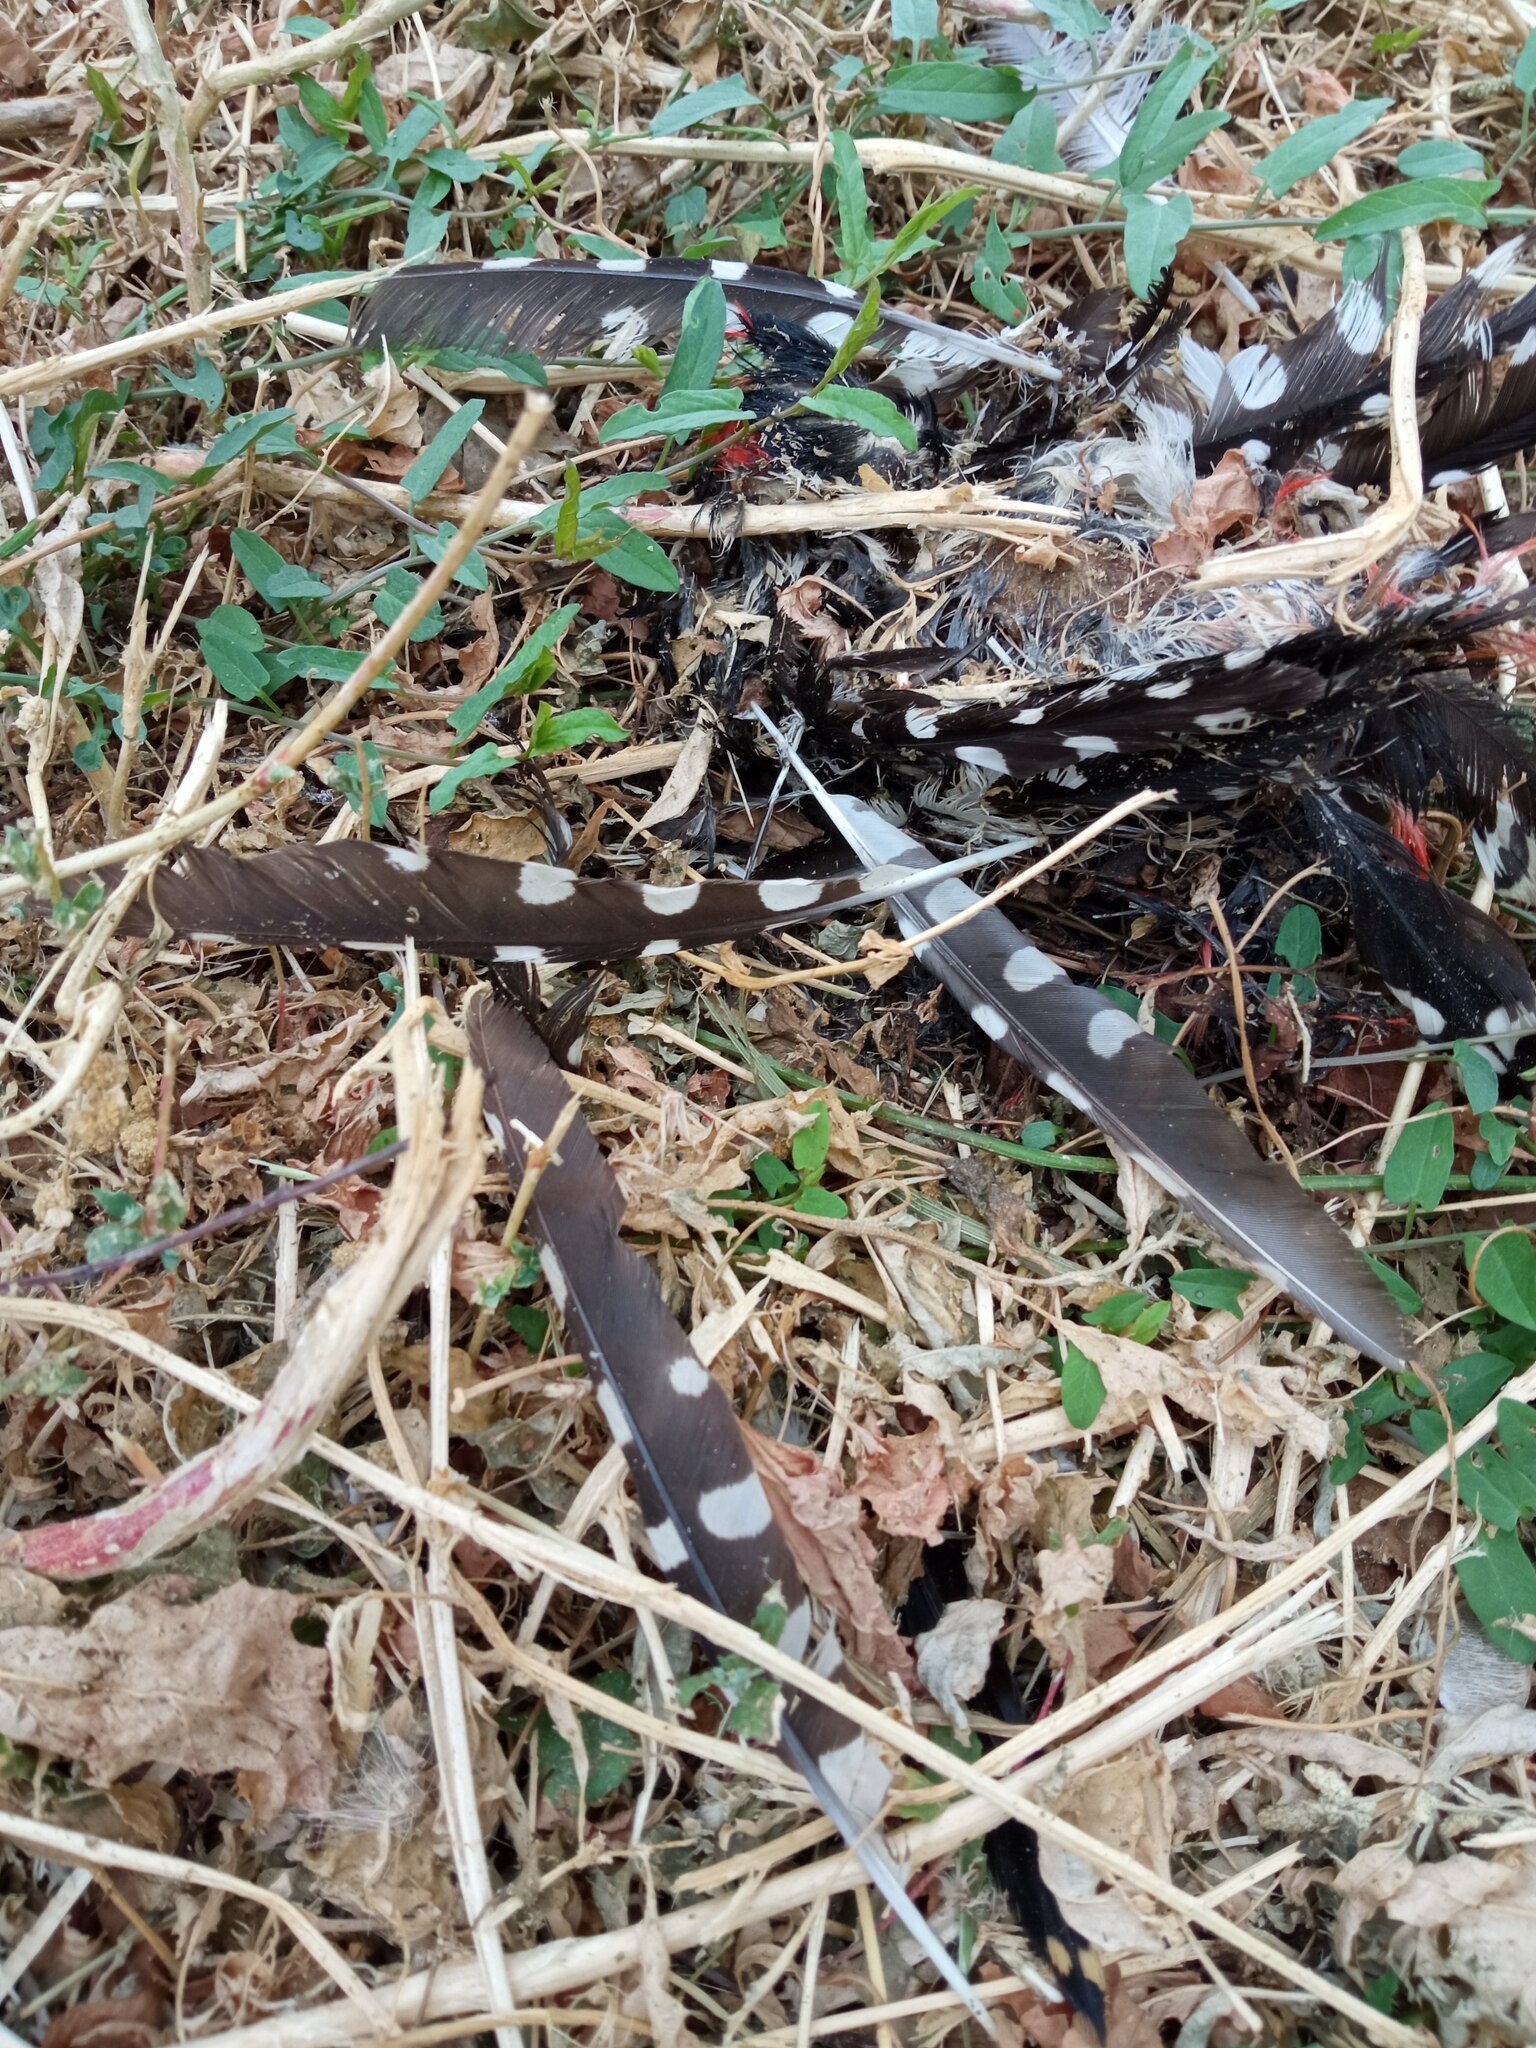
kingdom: Animalia
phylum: Chordata
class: Aves
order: Piciformes
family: Picidae
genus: Dendrocopos
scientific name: Dendrocopos major
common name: Great spotted woodpecker
